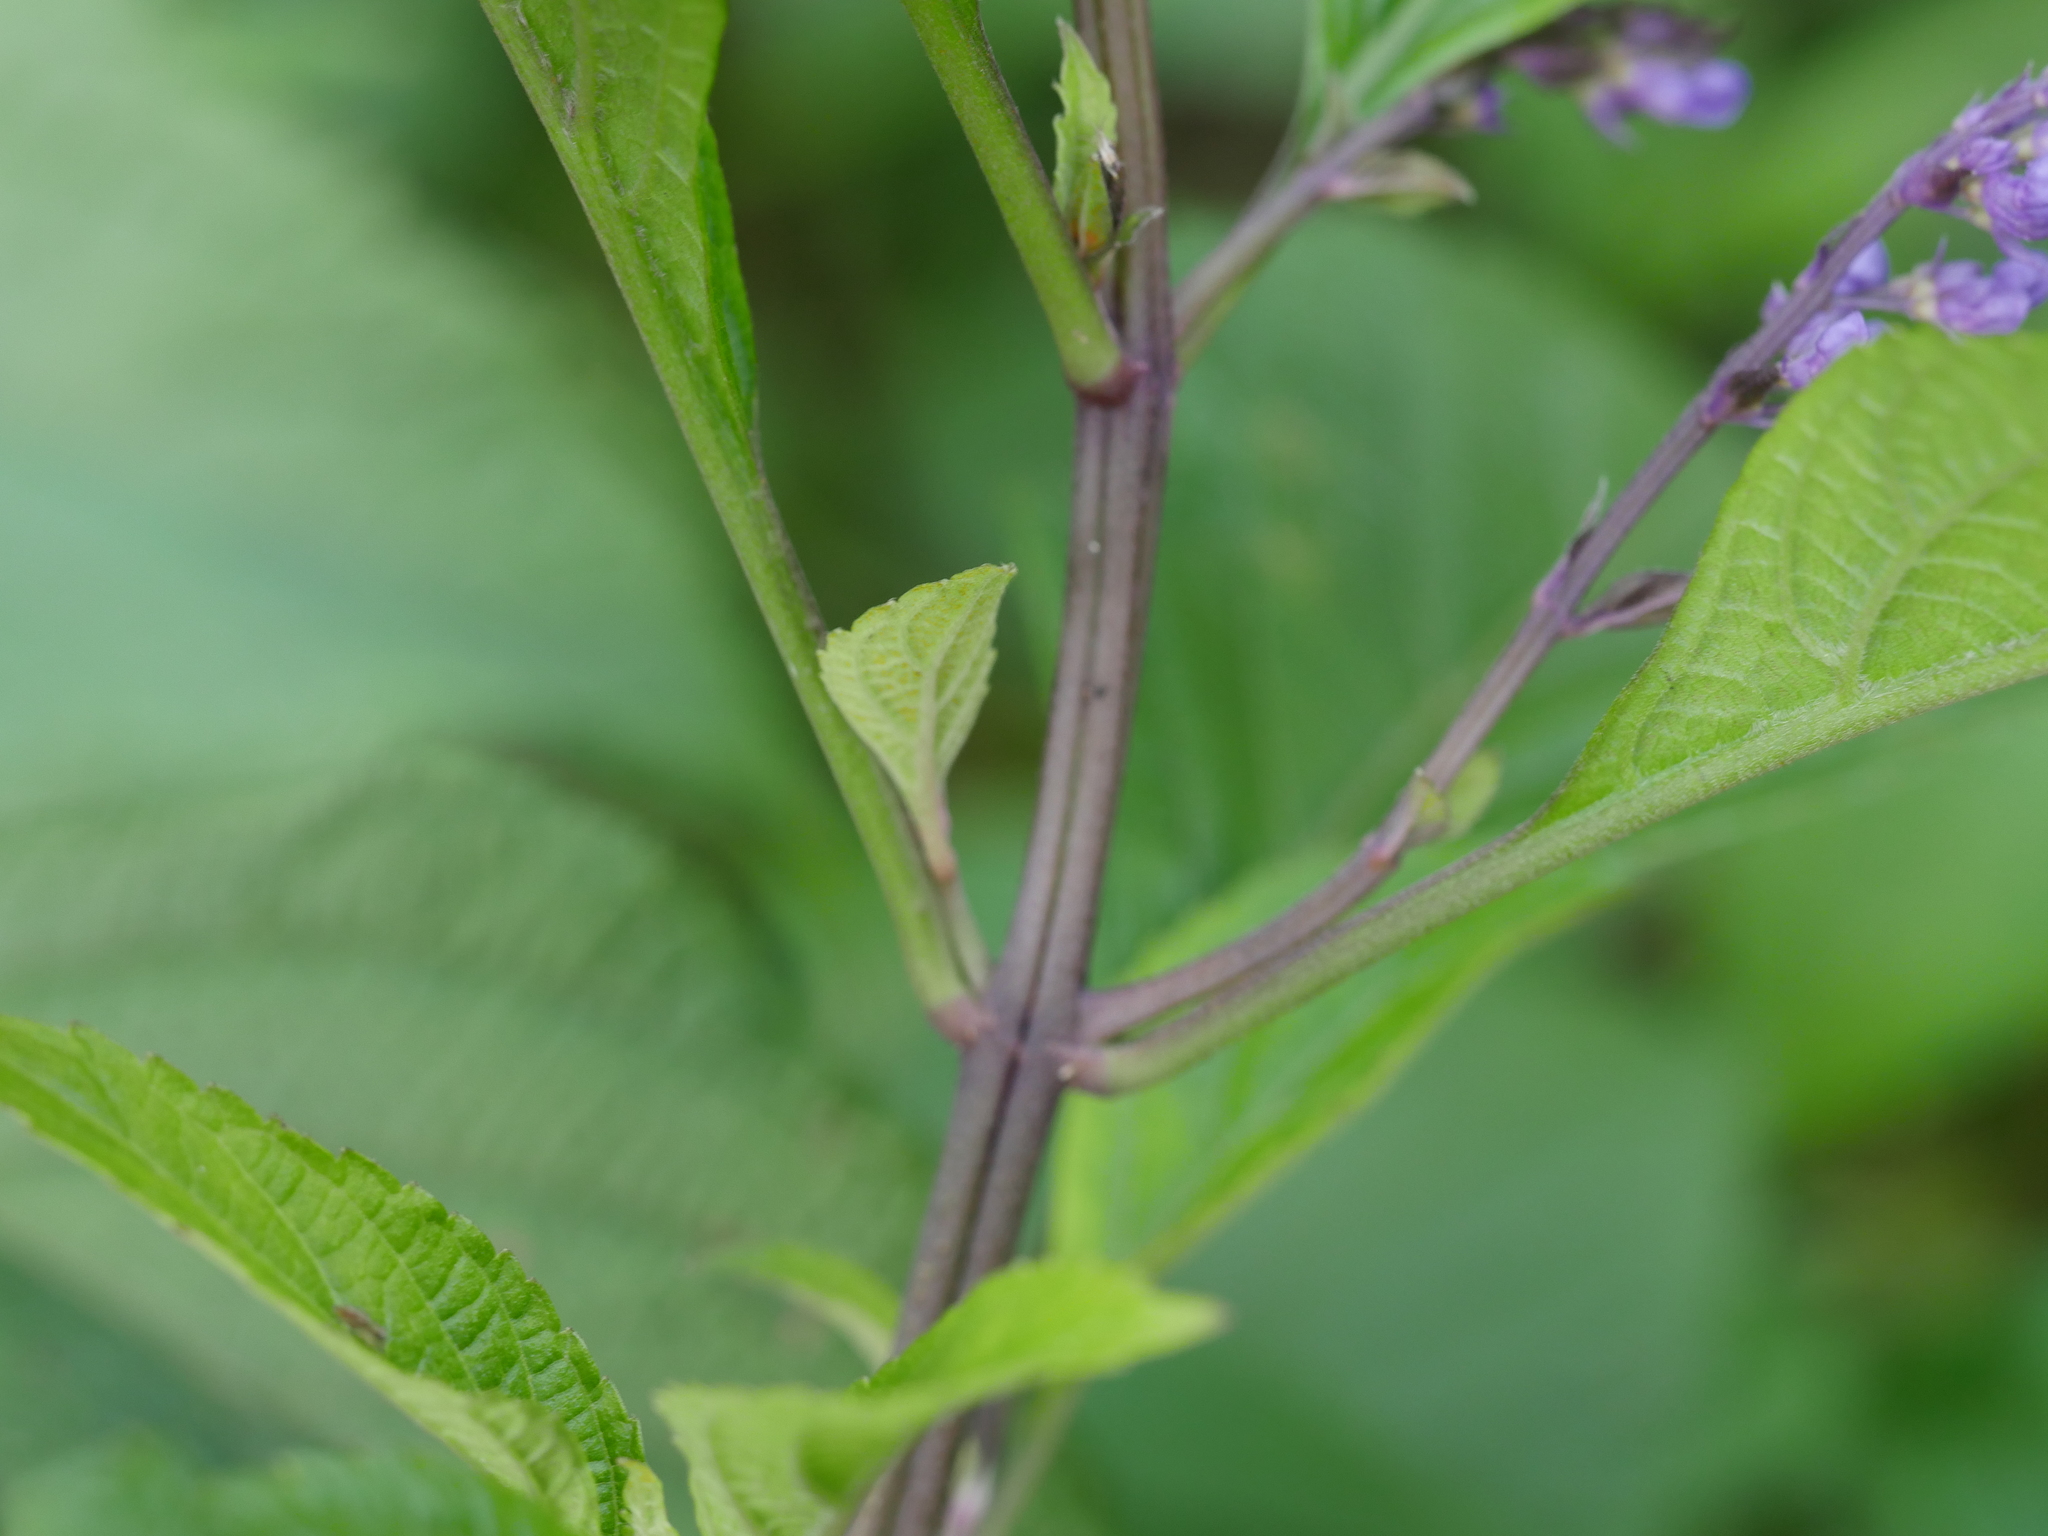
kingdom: Plantae
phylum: Tracheophyta
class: Magnoliopsida
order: Lamiales
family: Lamiaceae
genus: Plectranthus
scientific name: Plectranthus ecklonii
